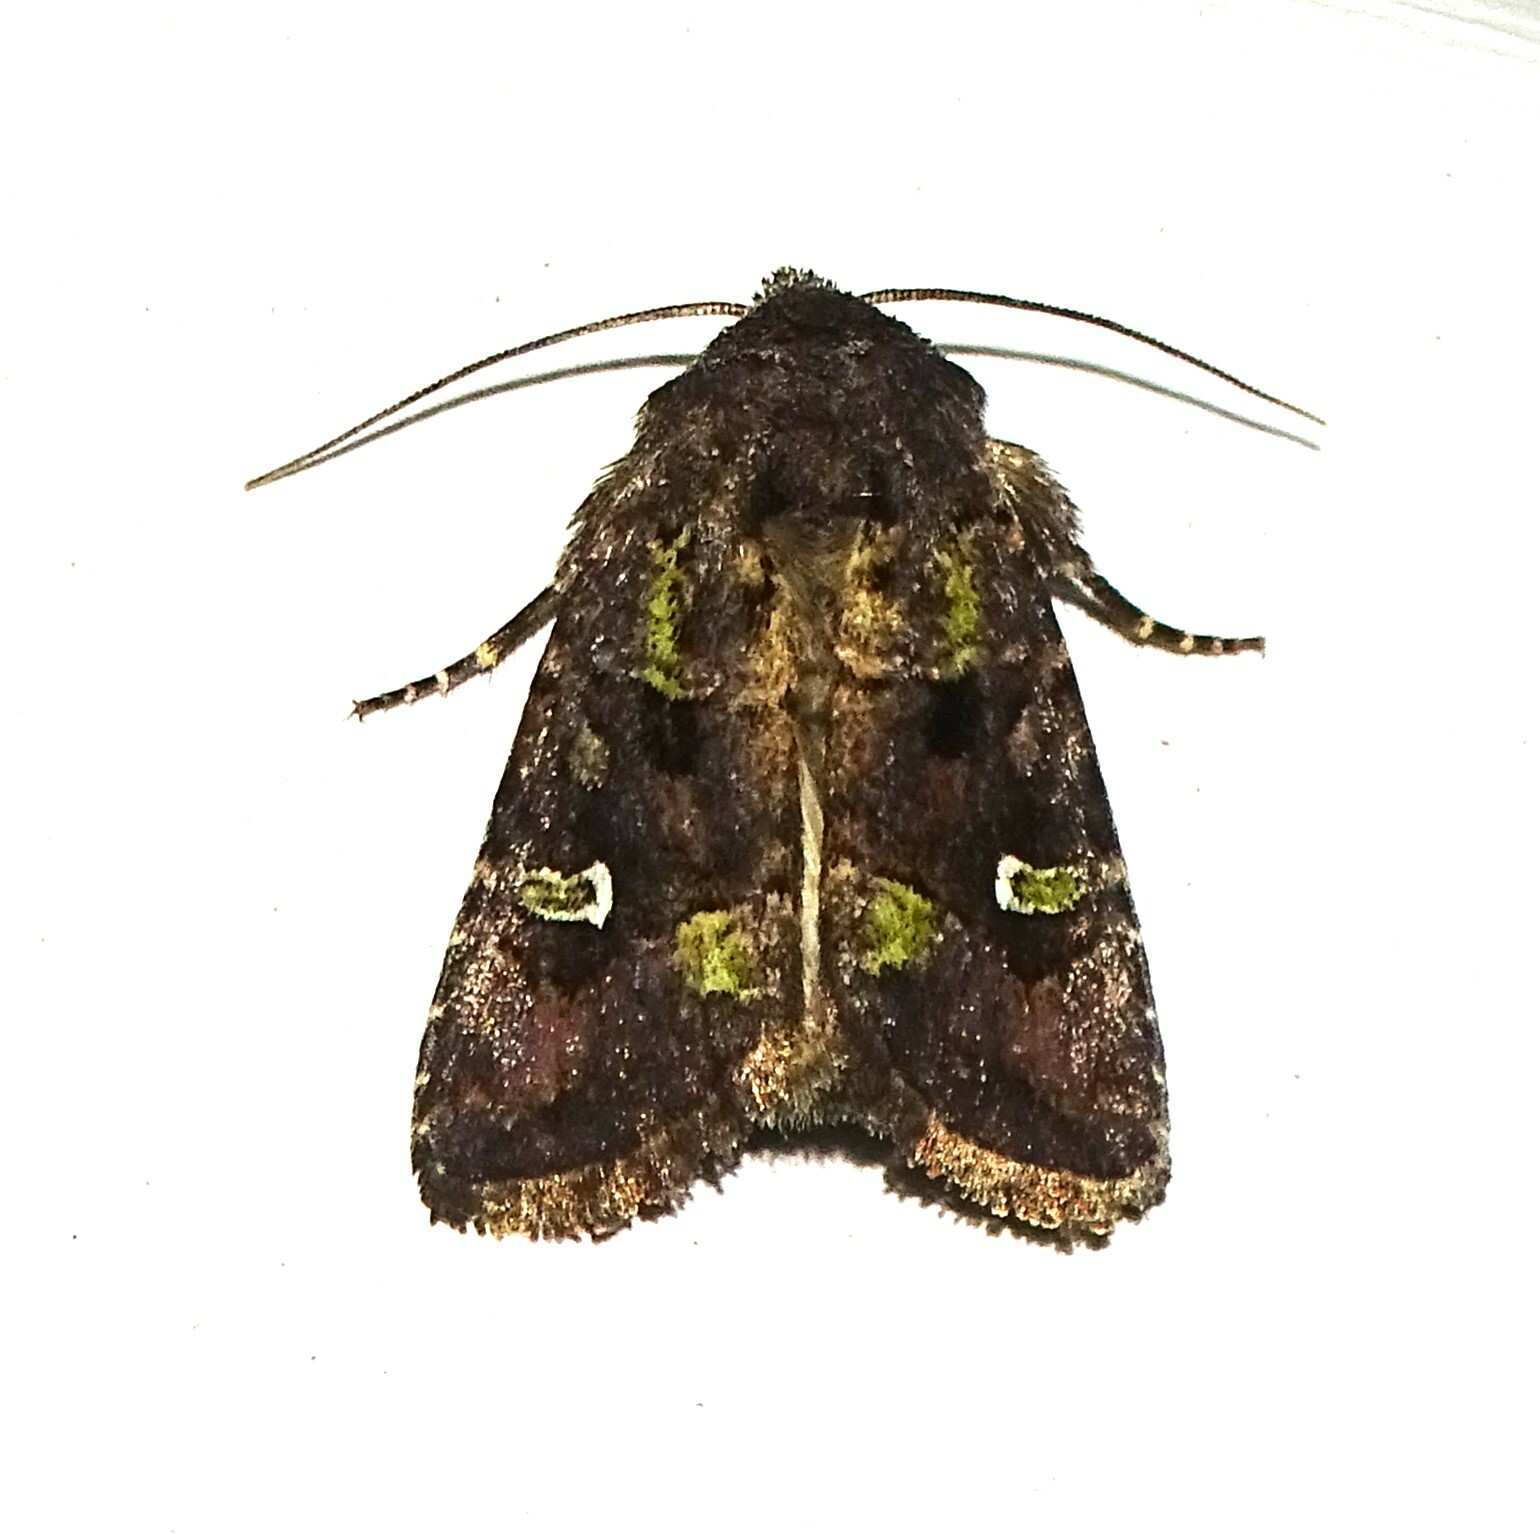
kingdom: Animalia
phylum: Arthropoda
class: Insecta
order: Lepidoptera
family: Noctuidae
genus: Lacinipolia
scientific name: Lacinipolia renigera
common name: Kidney-spotted minor
